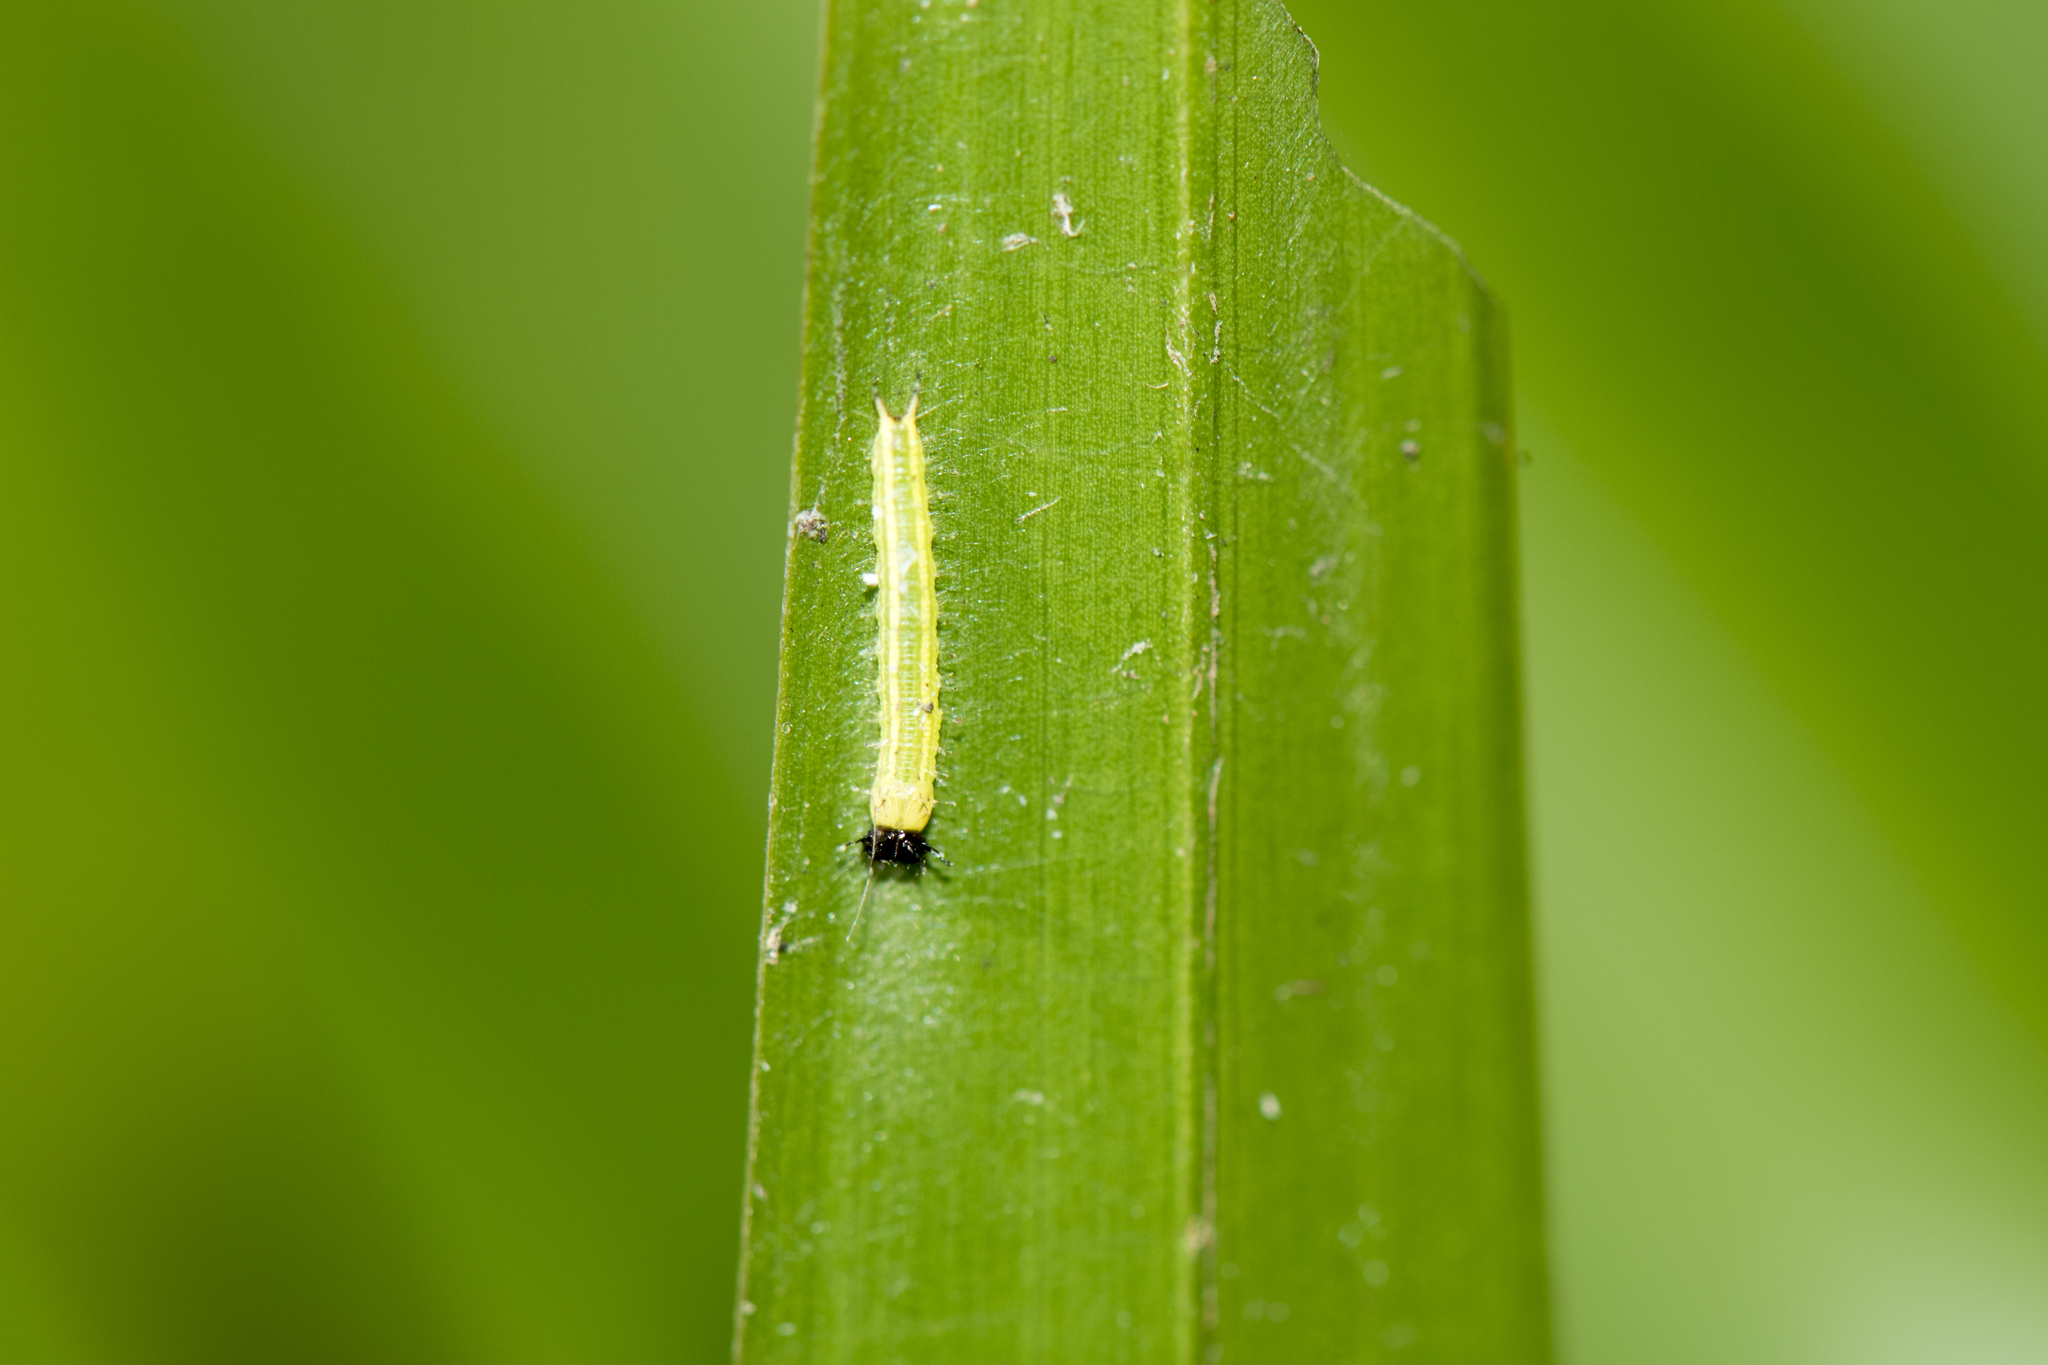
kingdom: Animalia
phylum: Arthropoda
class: Insecta
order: Lepidoptera
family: Nymphalidae
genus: Elymnias
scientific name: Elymnias hypermnestra
